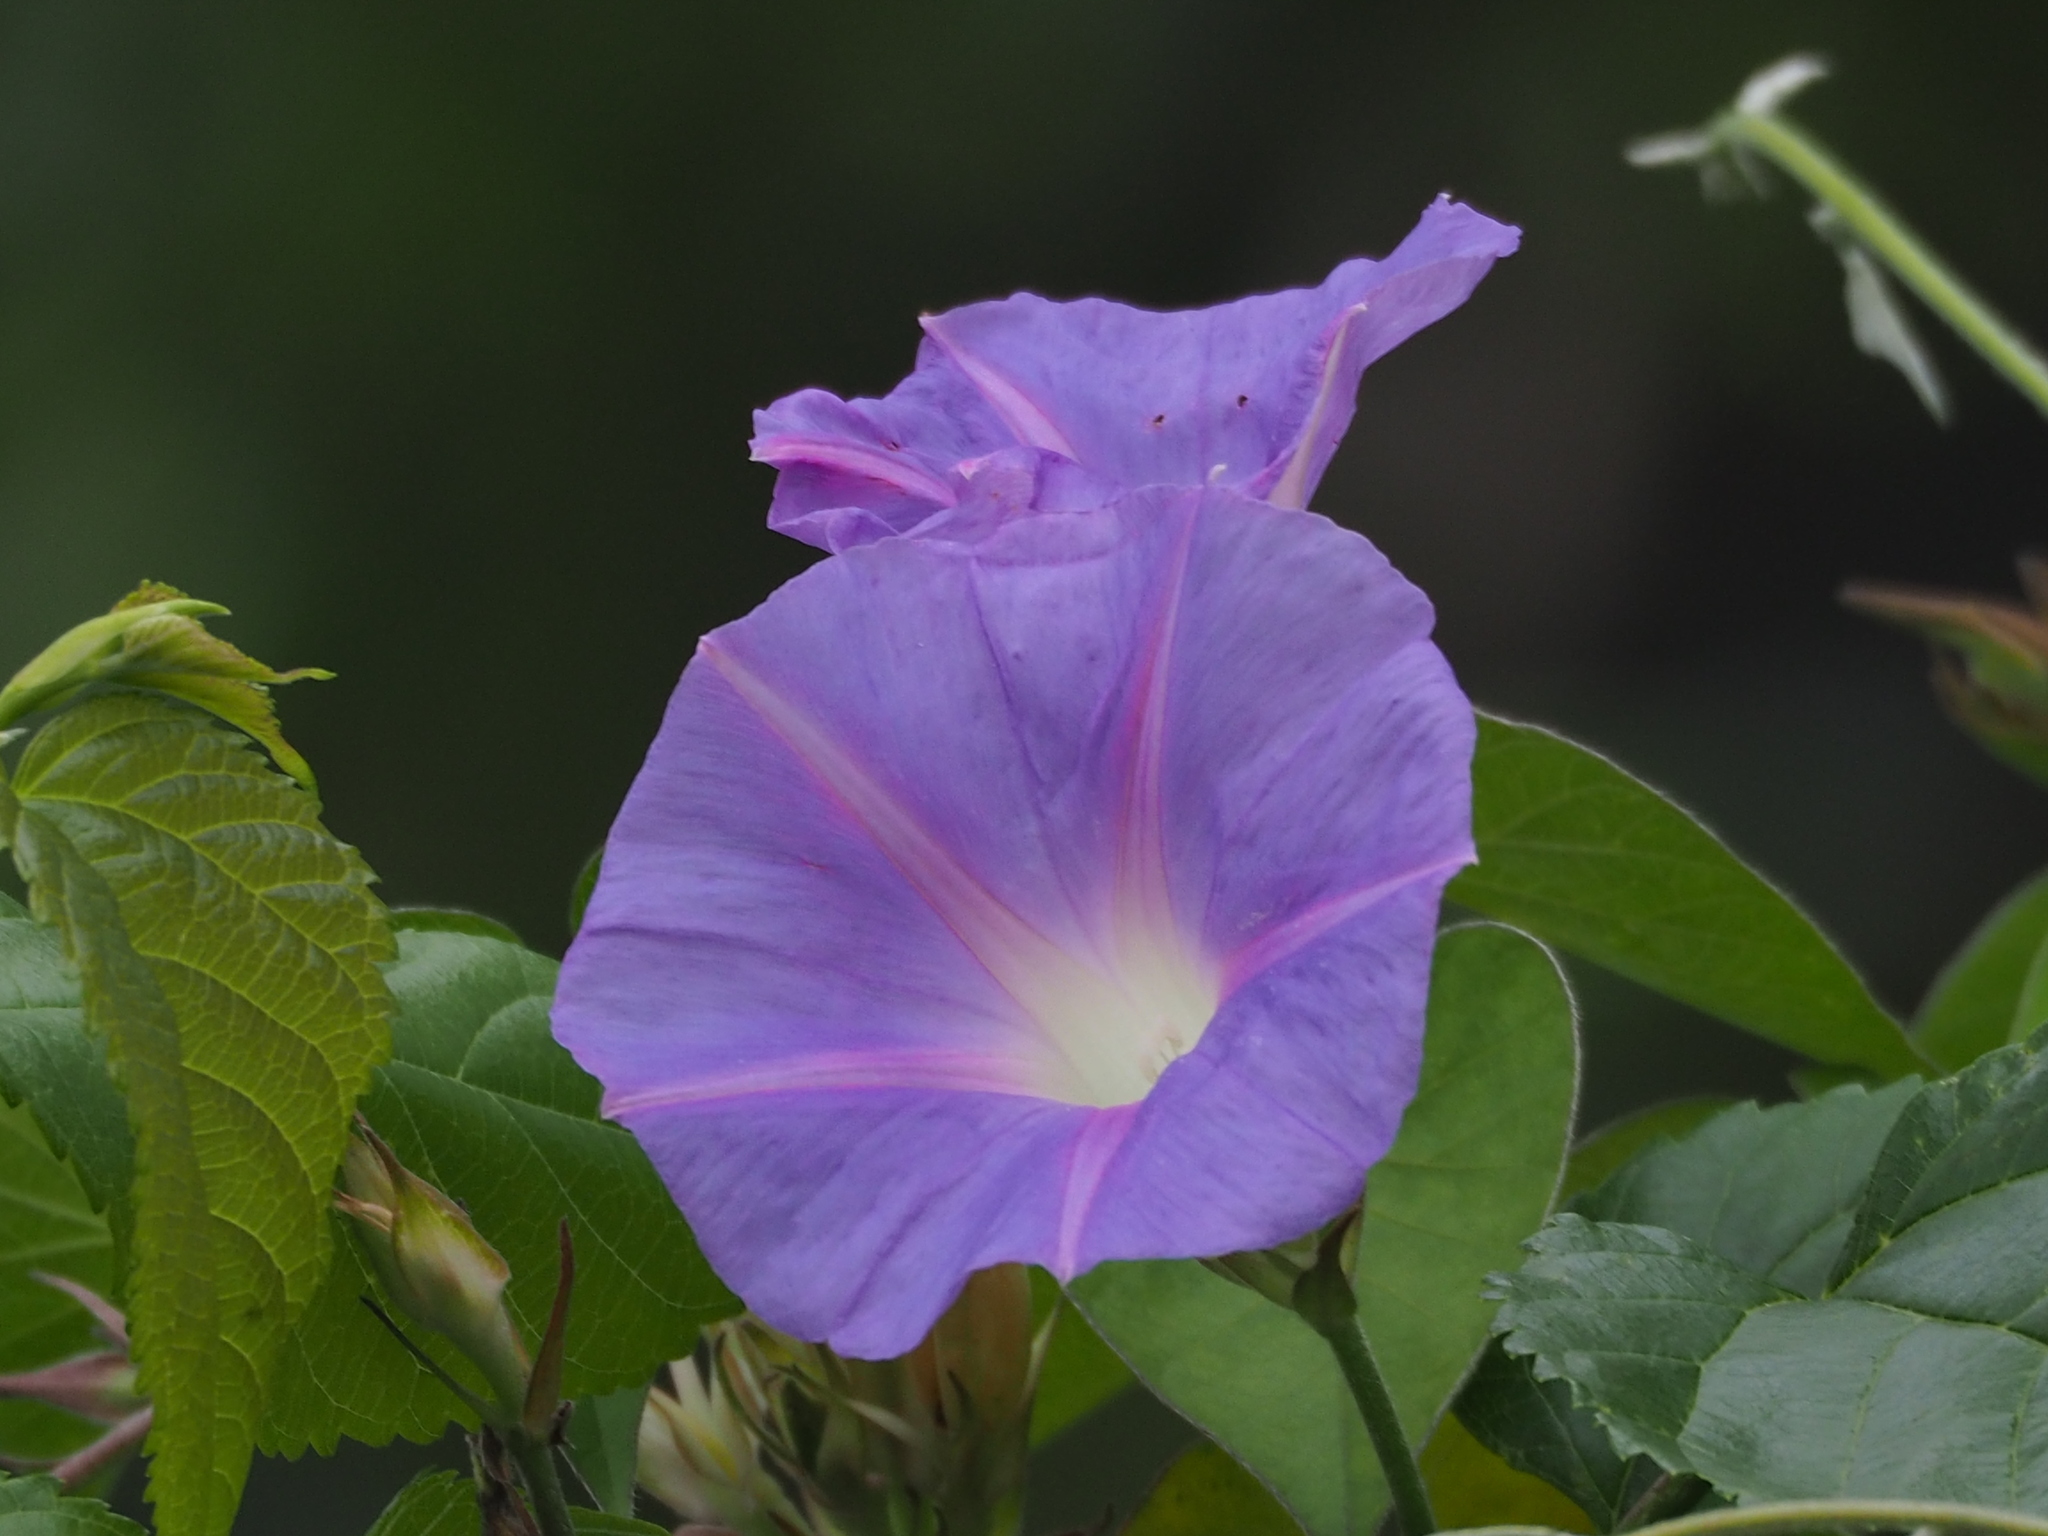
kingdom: Plantae
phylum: Tracheophyta
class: Magnoliopsida
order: Solanales
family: Convolvulaceae
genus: Ipomoea
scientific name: Ipomoea indica
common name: Blue dawnflower
